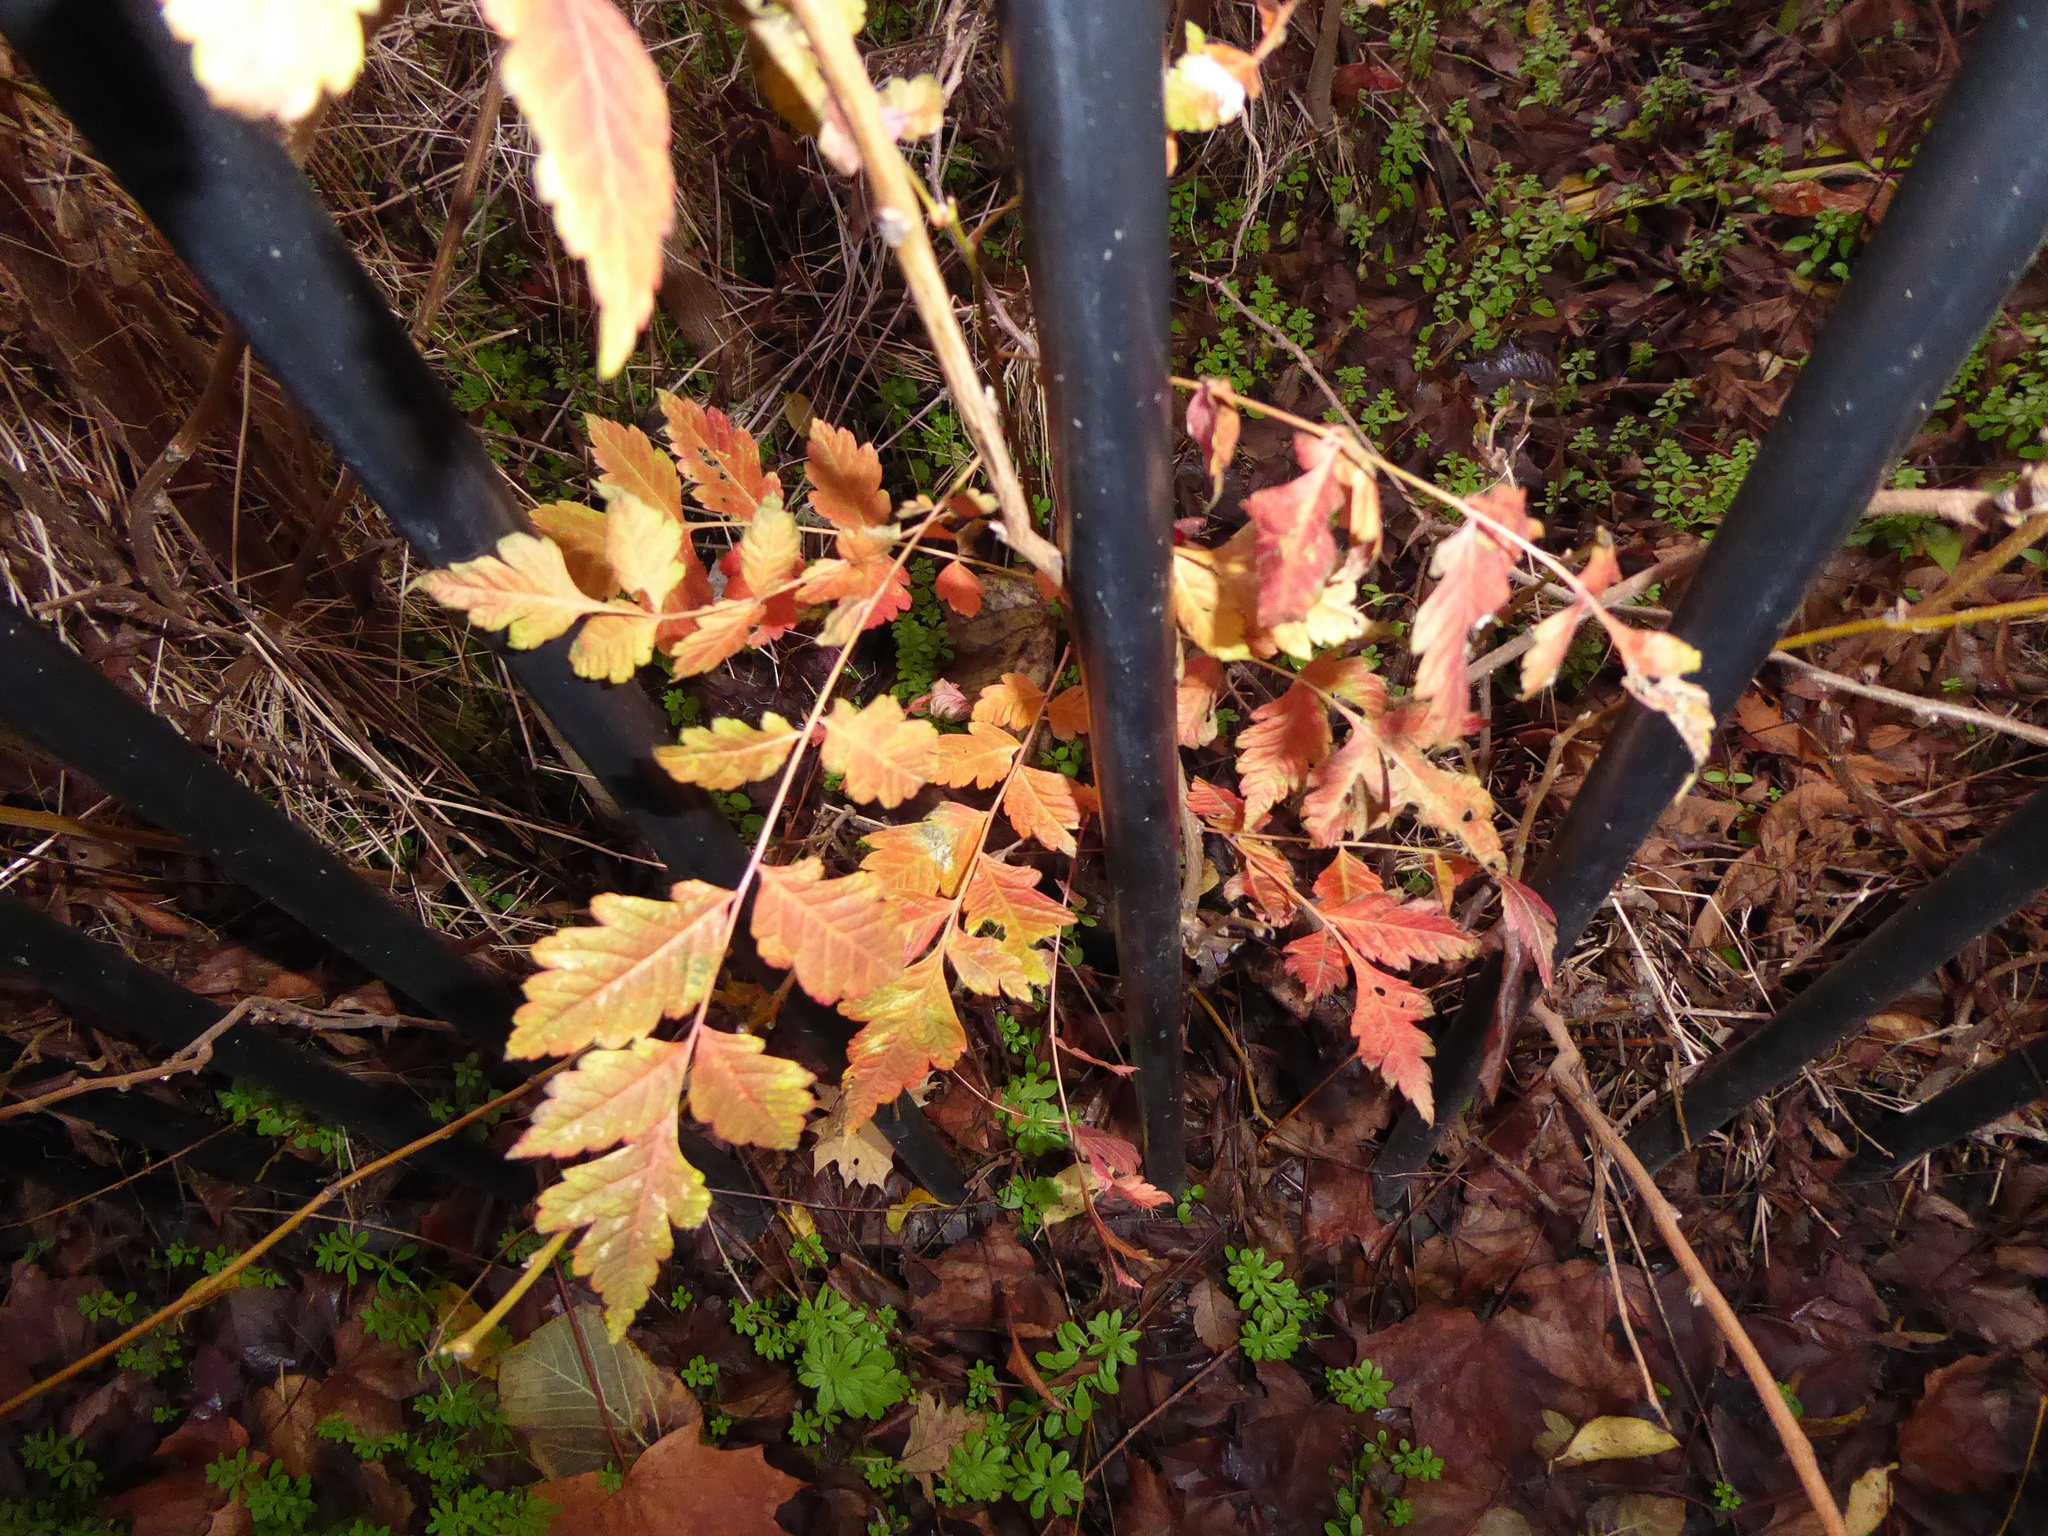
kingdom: Plantae
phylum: Tracheophyta
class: Magnoliopsida
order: Sapindales
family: Sapindaceae
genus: Koelreuteria
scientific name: Koelreuteria paniculata
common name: Pride-of-india
